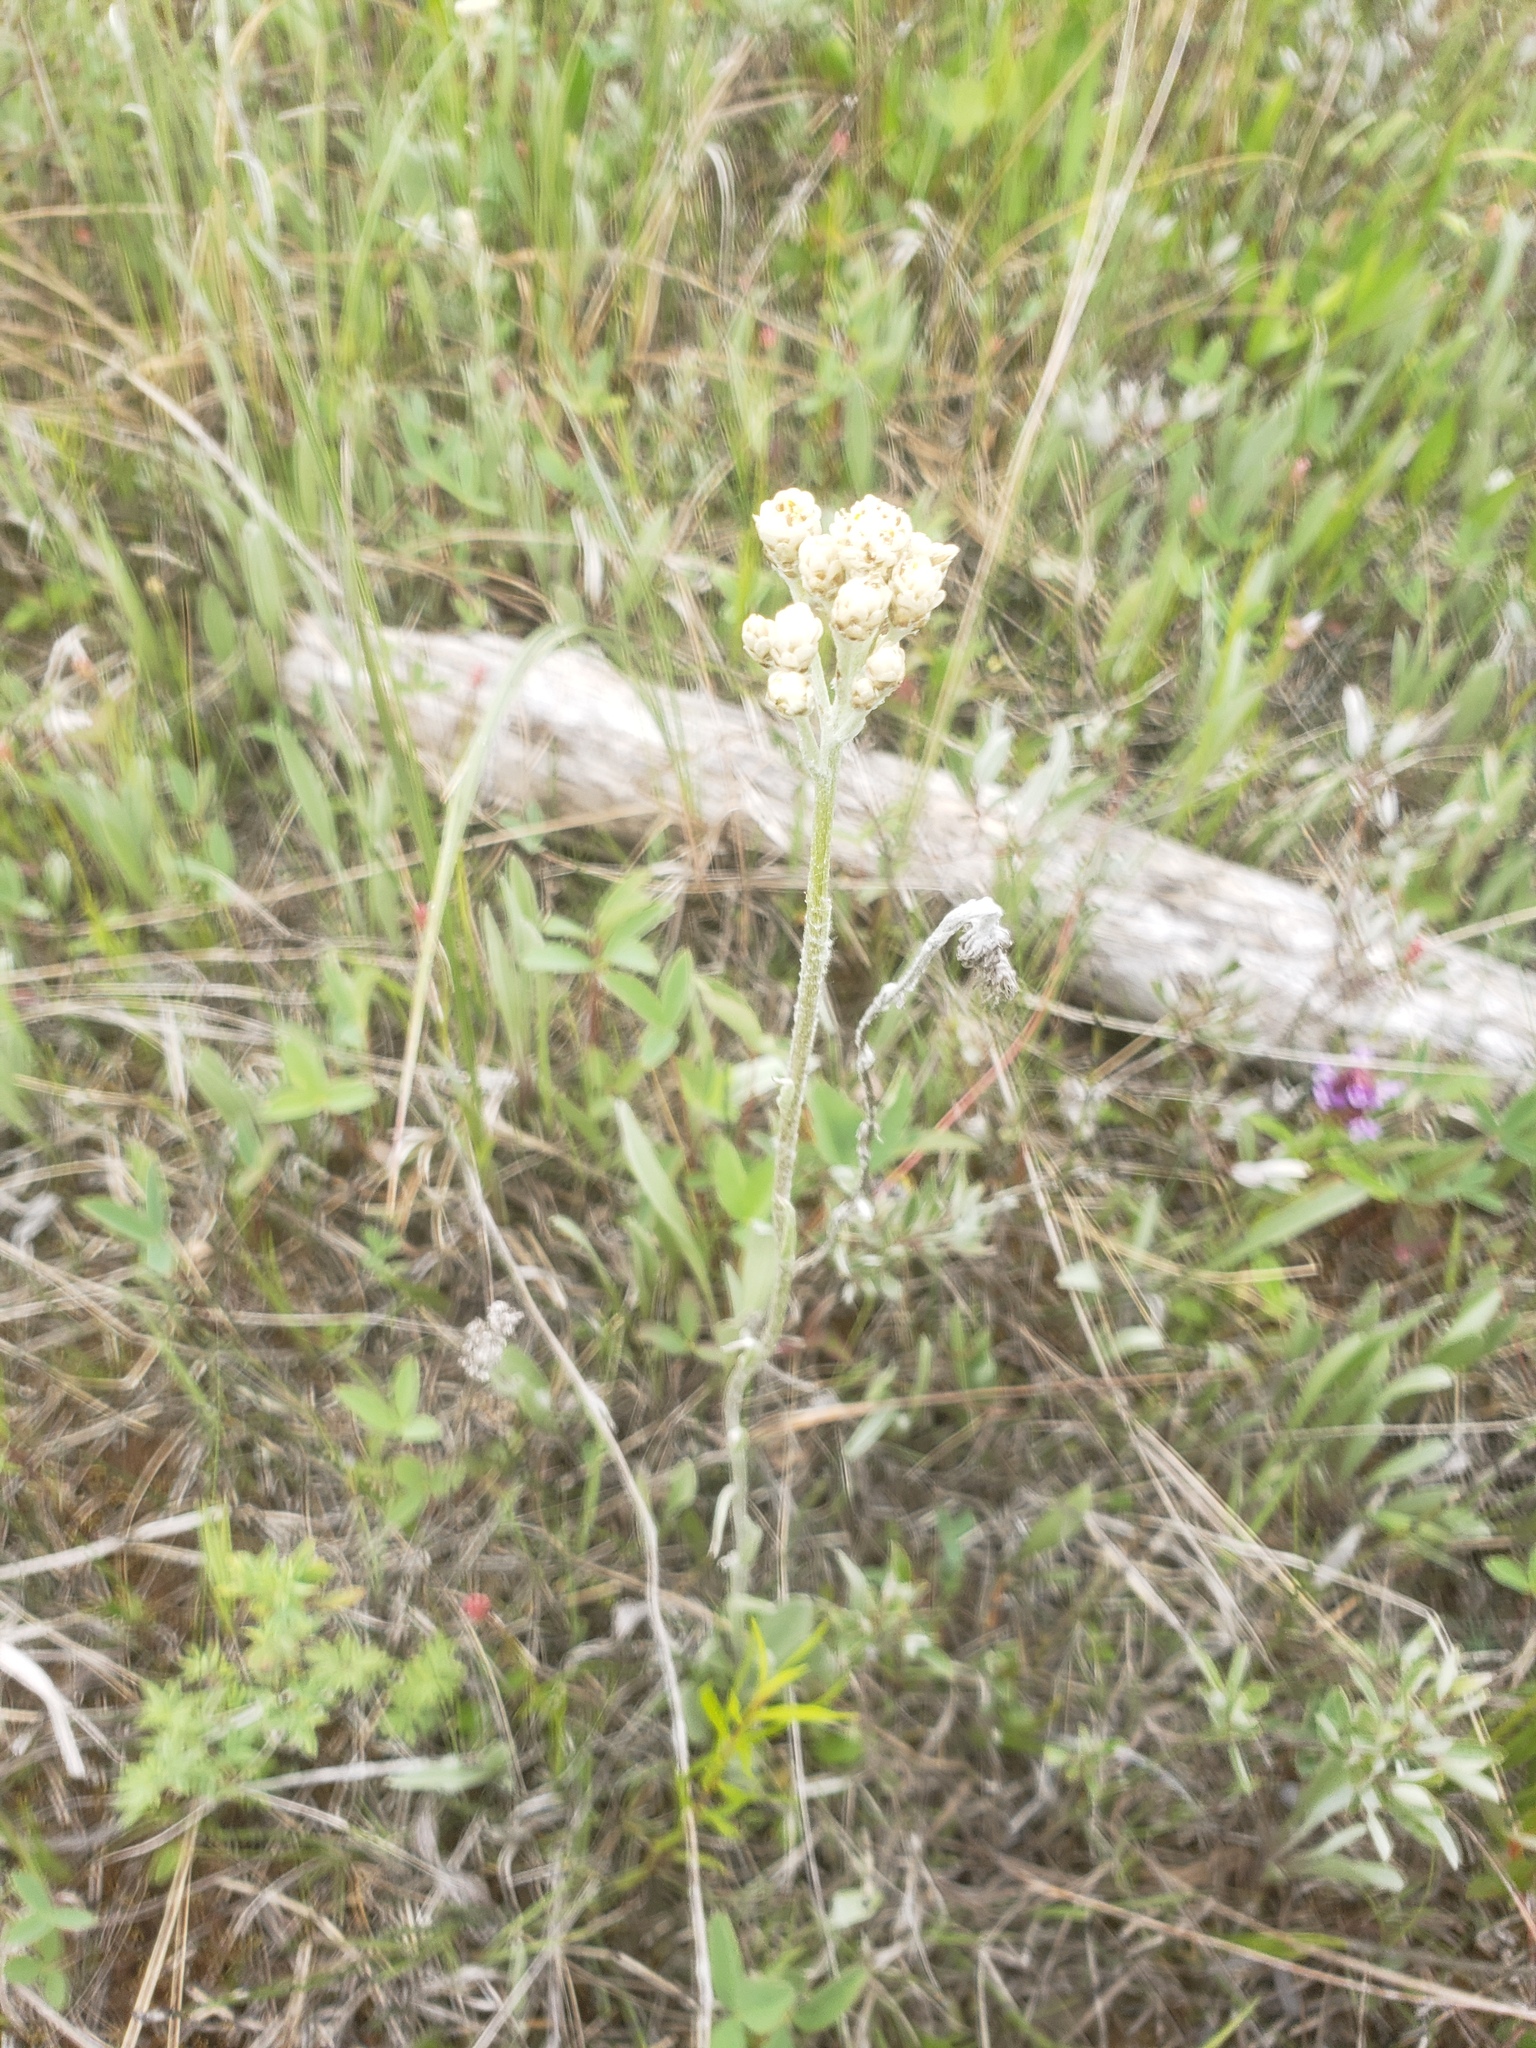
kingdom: Plantae
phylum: Tracheophyta
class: Magnoliopsida
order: Asterales
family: Asteraceae
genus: Antennaria
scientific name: Antennaria pulcherrima
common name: Handsome pussytoes
